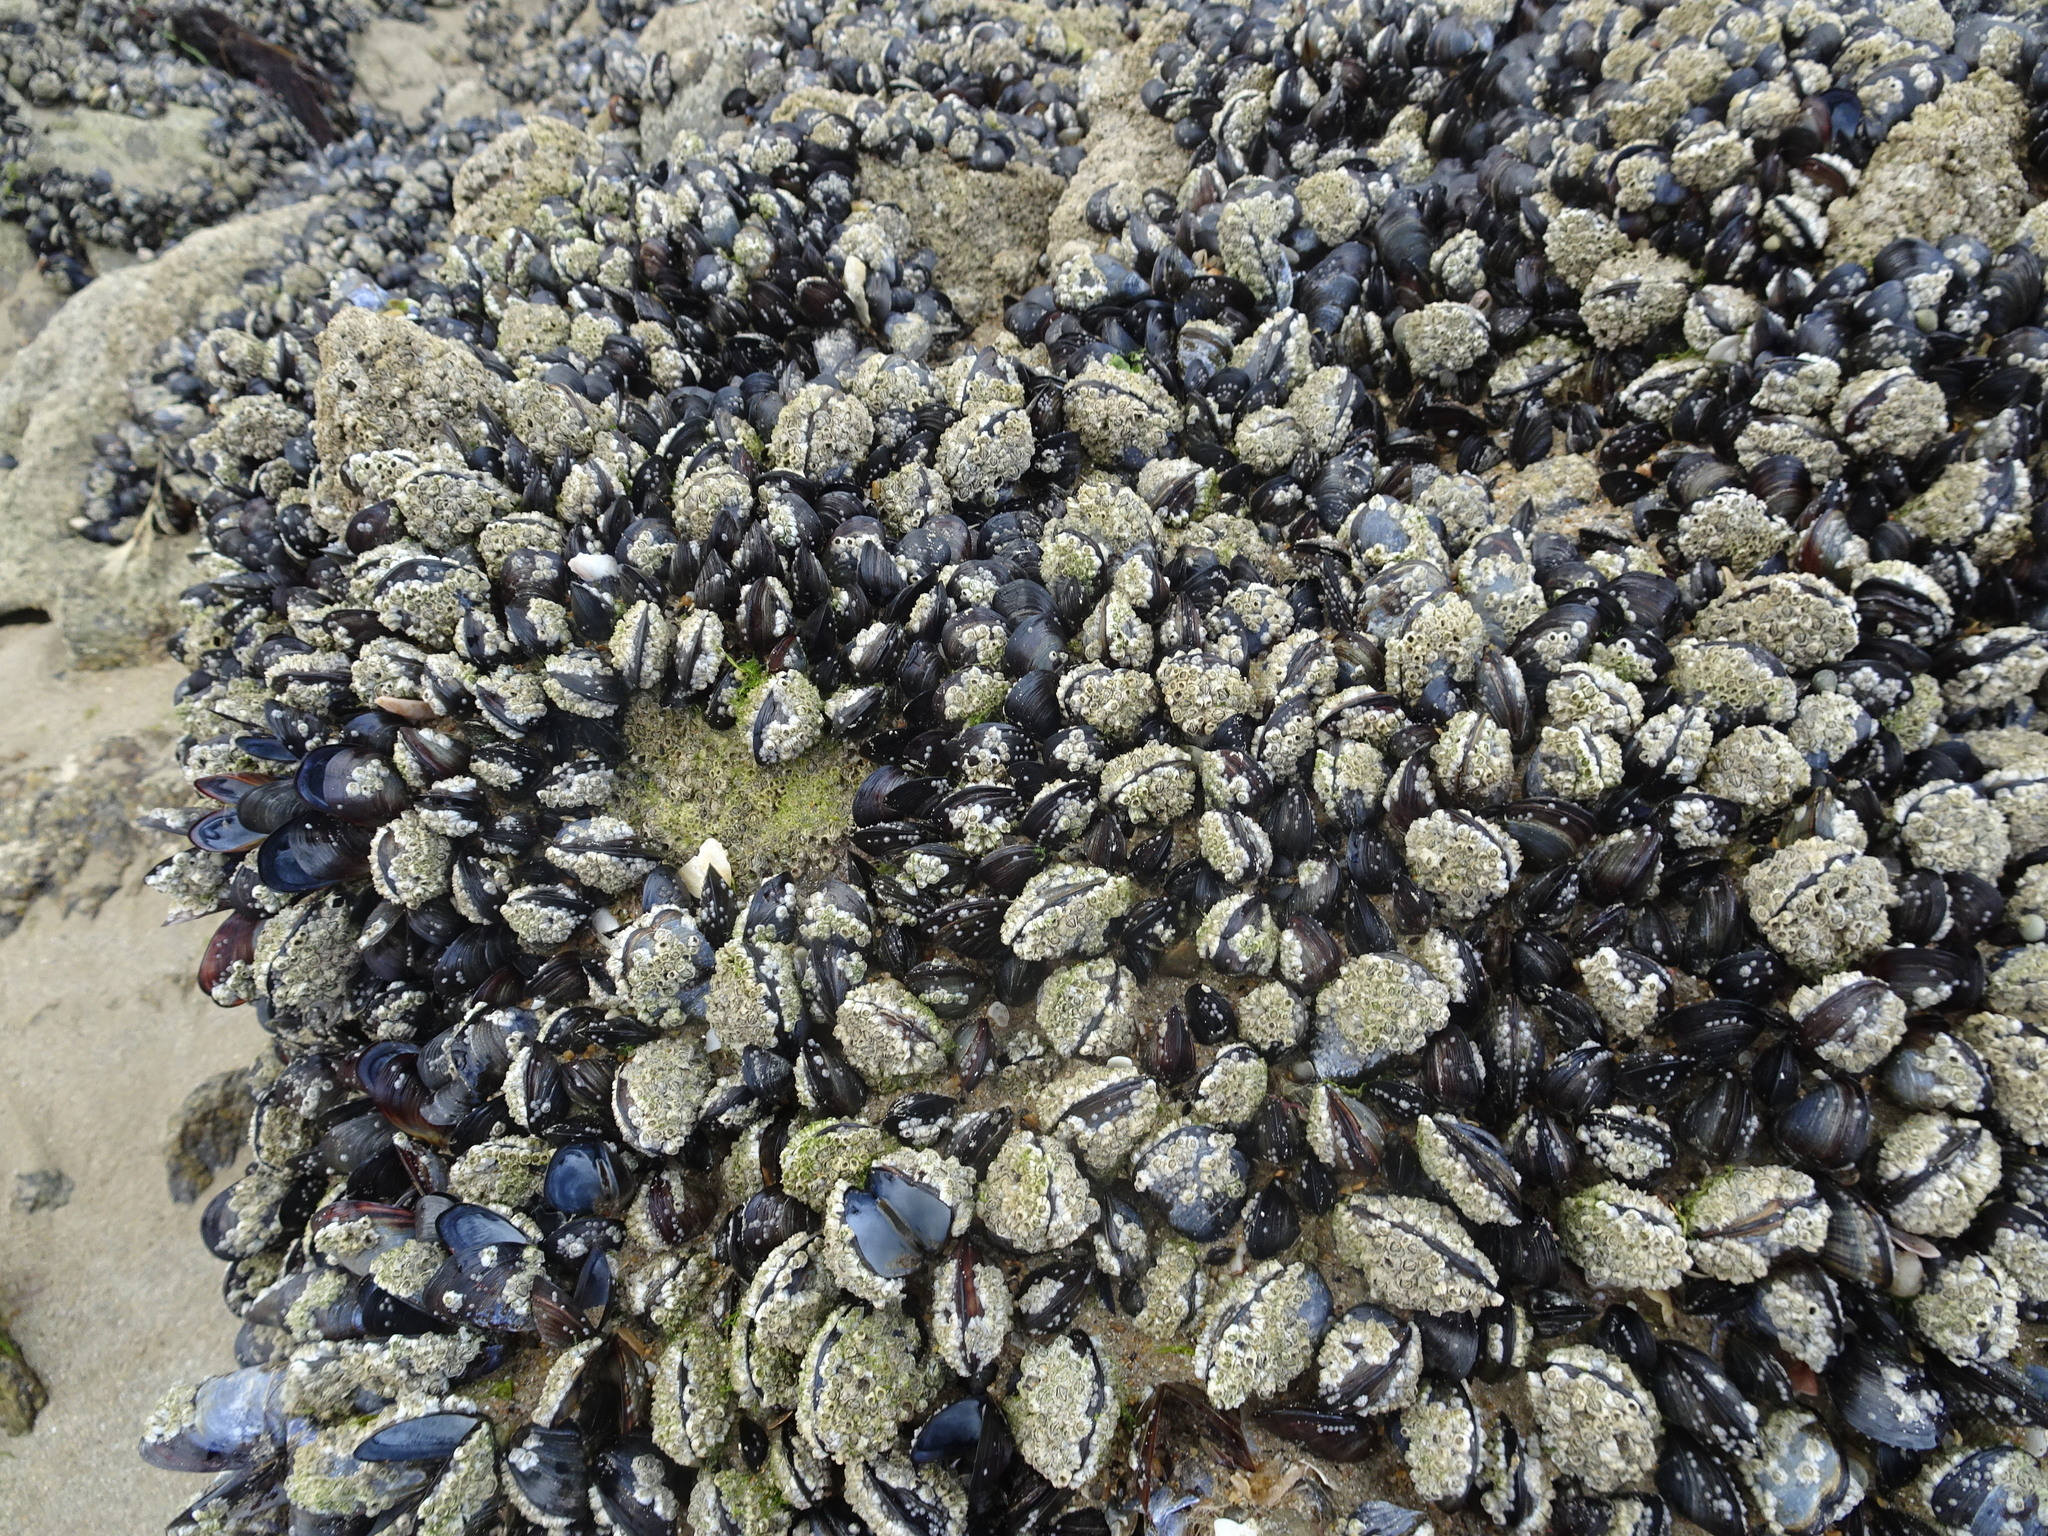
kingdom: Animalia
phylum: Mollusca
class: Bivalvia
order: Mytilida
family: Mytilidae
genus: Mytilus
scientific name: Mytilus edulis
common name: Blue mussel
